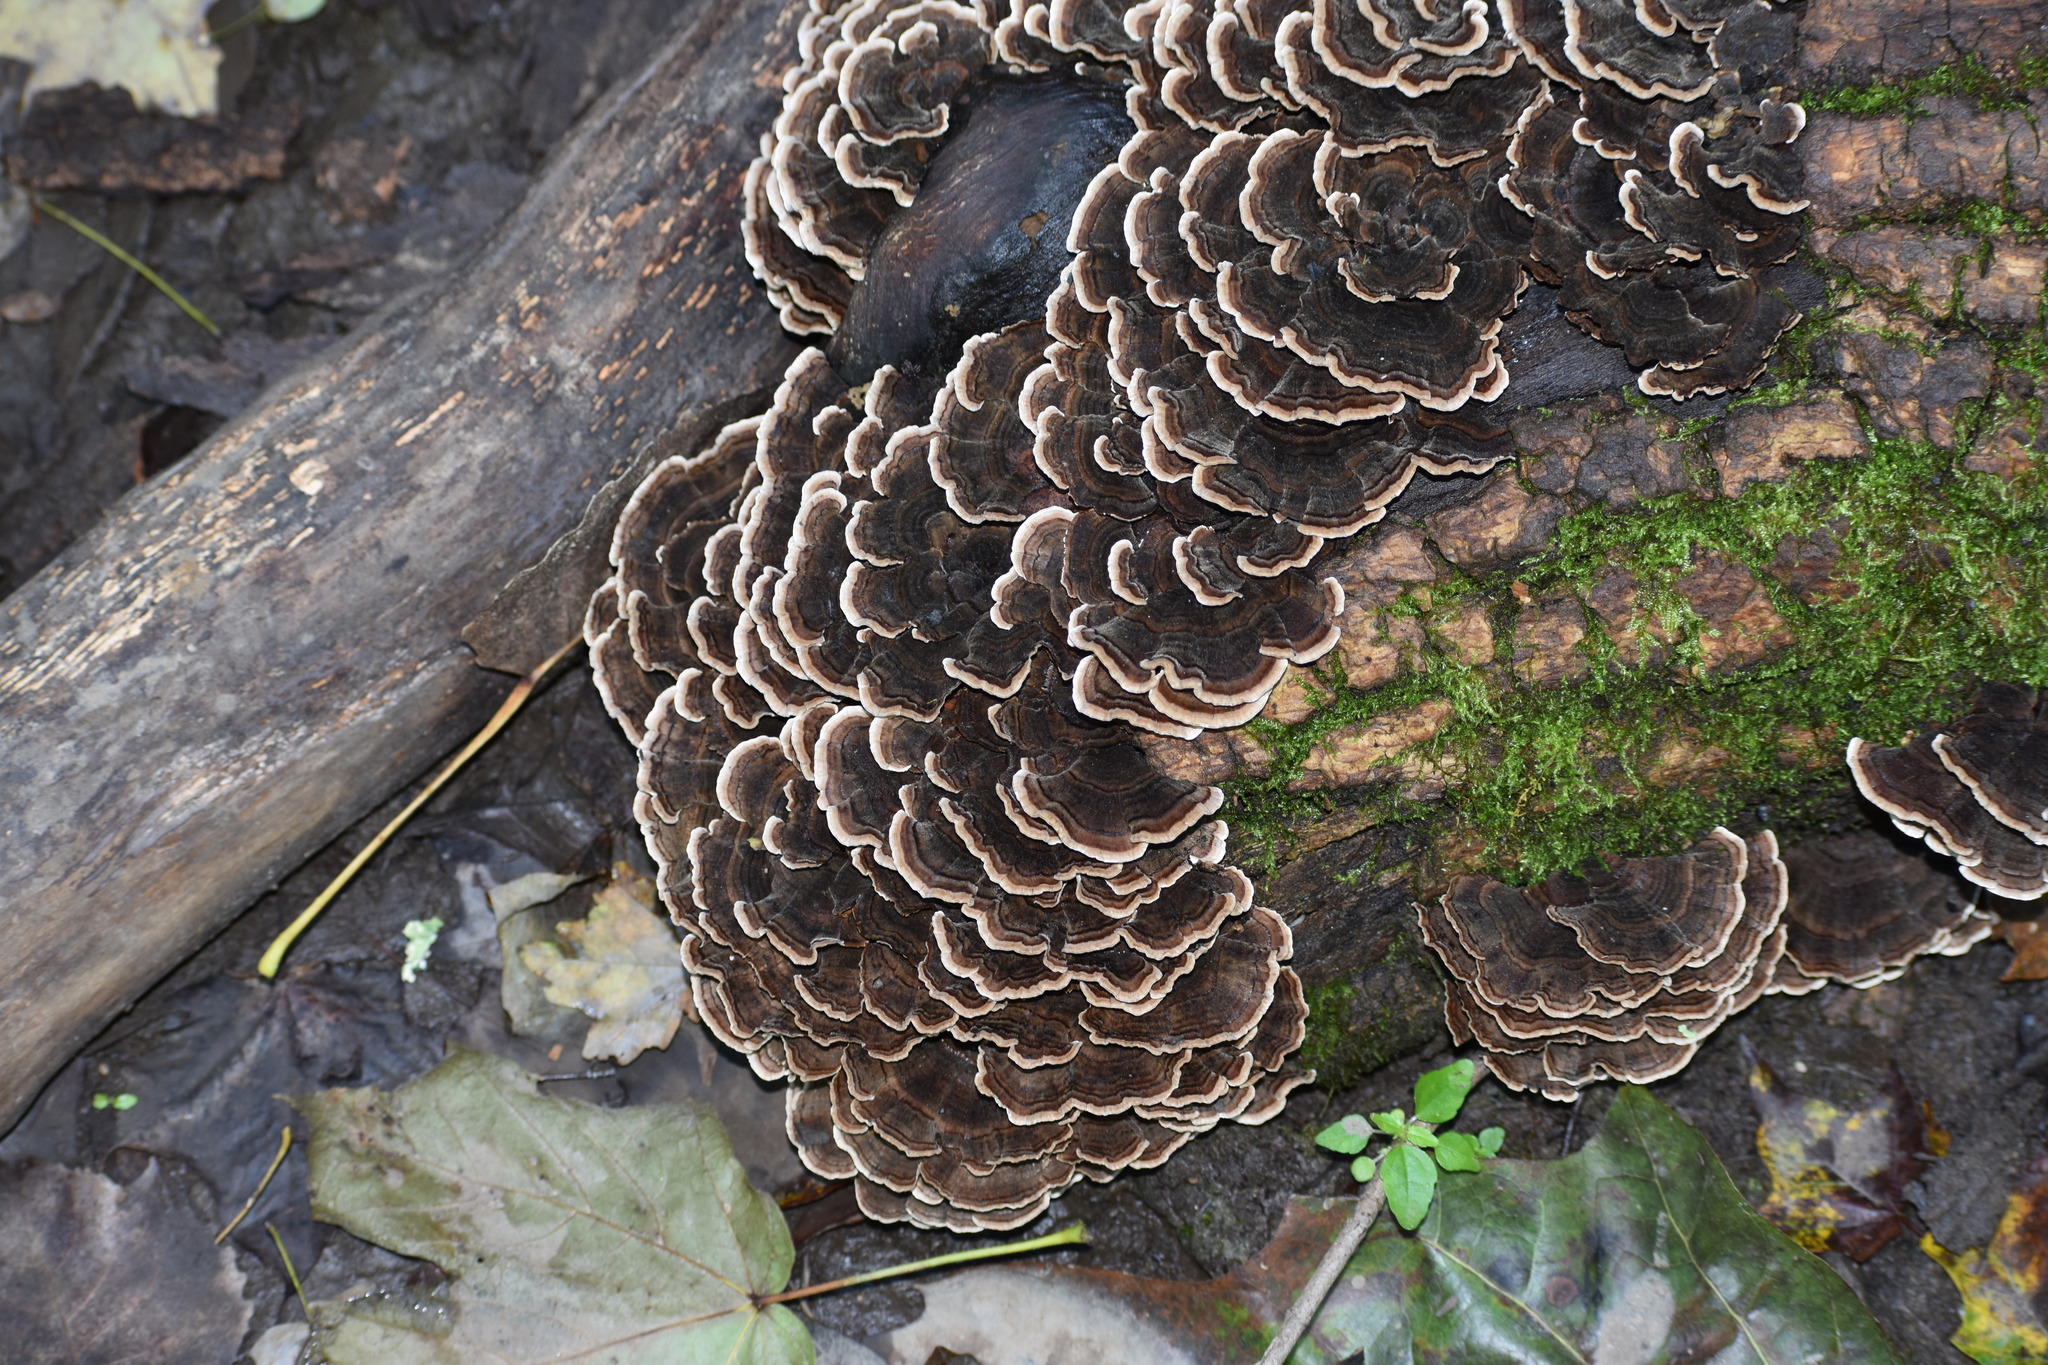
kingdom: Fungi
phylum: Basidiomycota
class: Agaricomycetes
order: Polyporales
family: Polyporaceae
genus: Trametes
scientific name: Trametes versicolor
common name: Turkeytail
